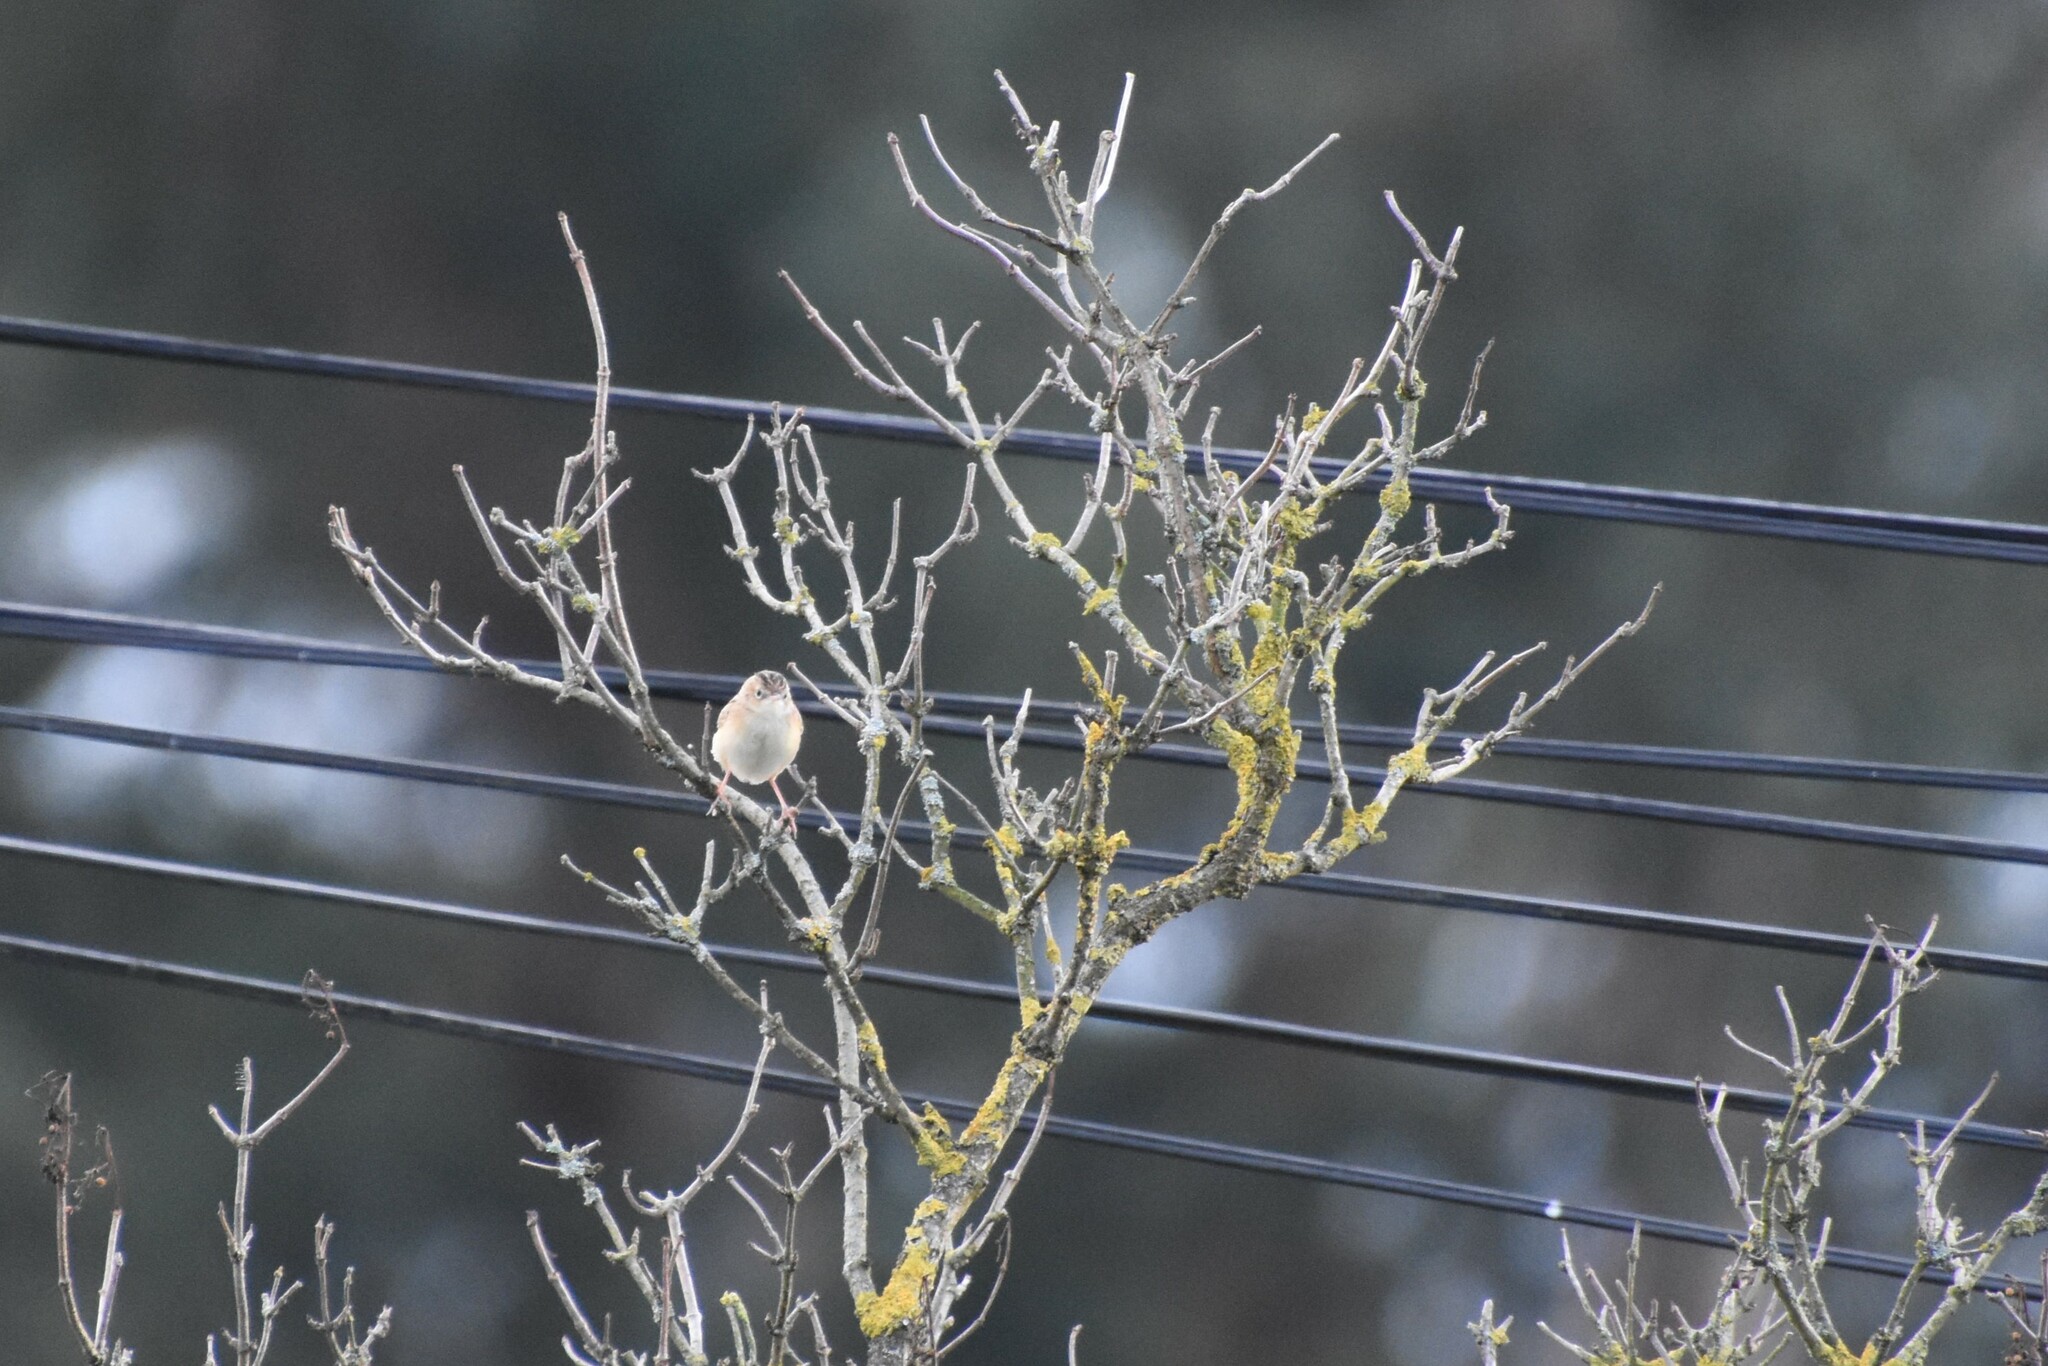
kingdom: Animalia
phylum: Chordata
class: Aves
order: Passeriformes
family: Cisticolidae
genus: Cisticola
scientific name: Cisticola juncidis
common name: Zitting cisticola
